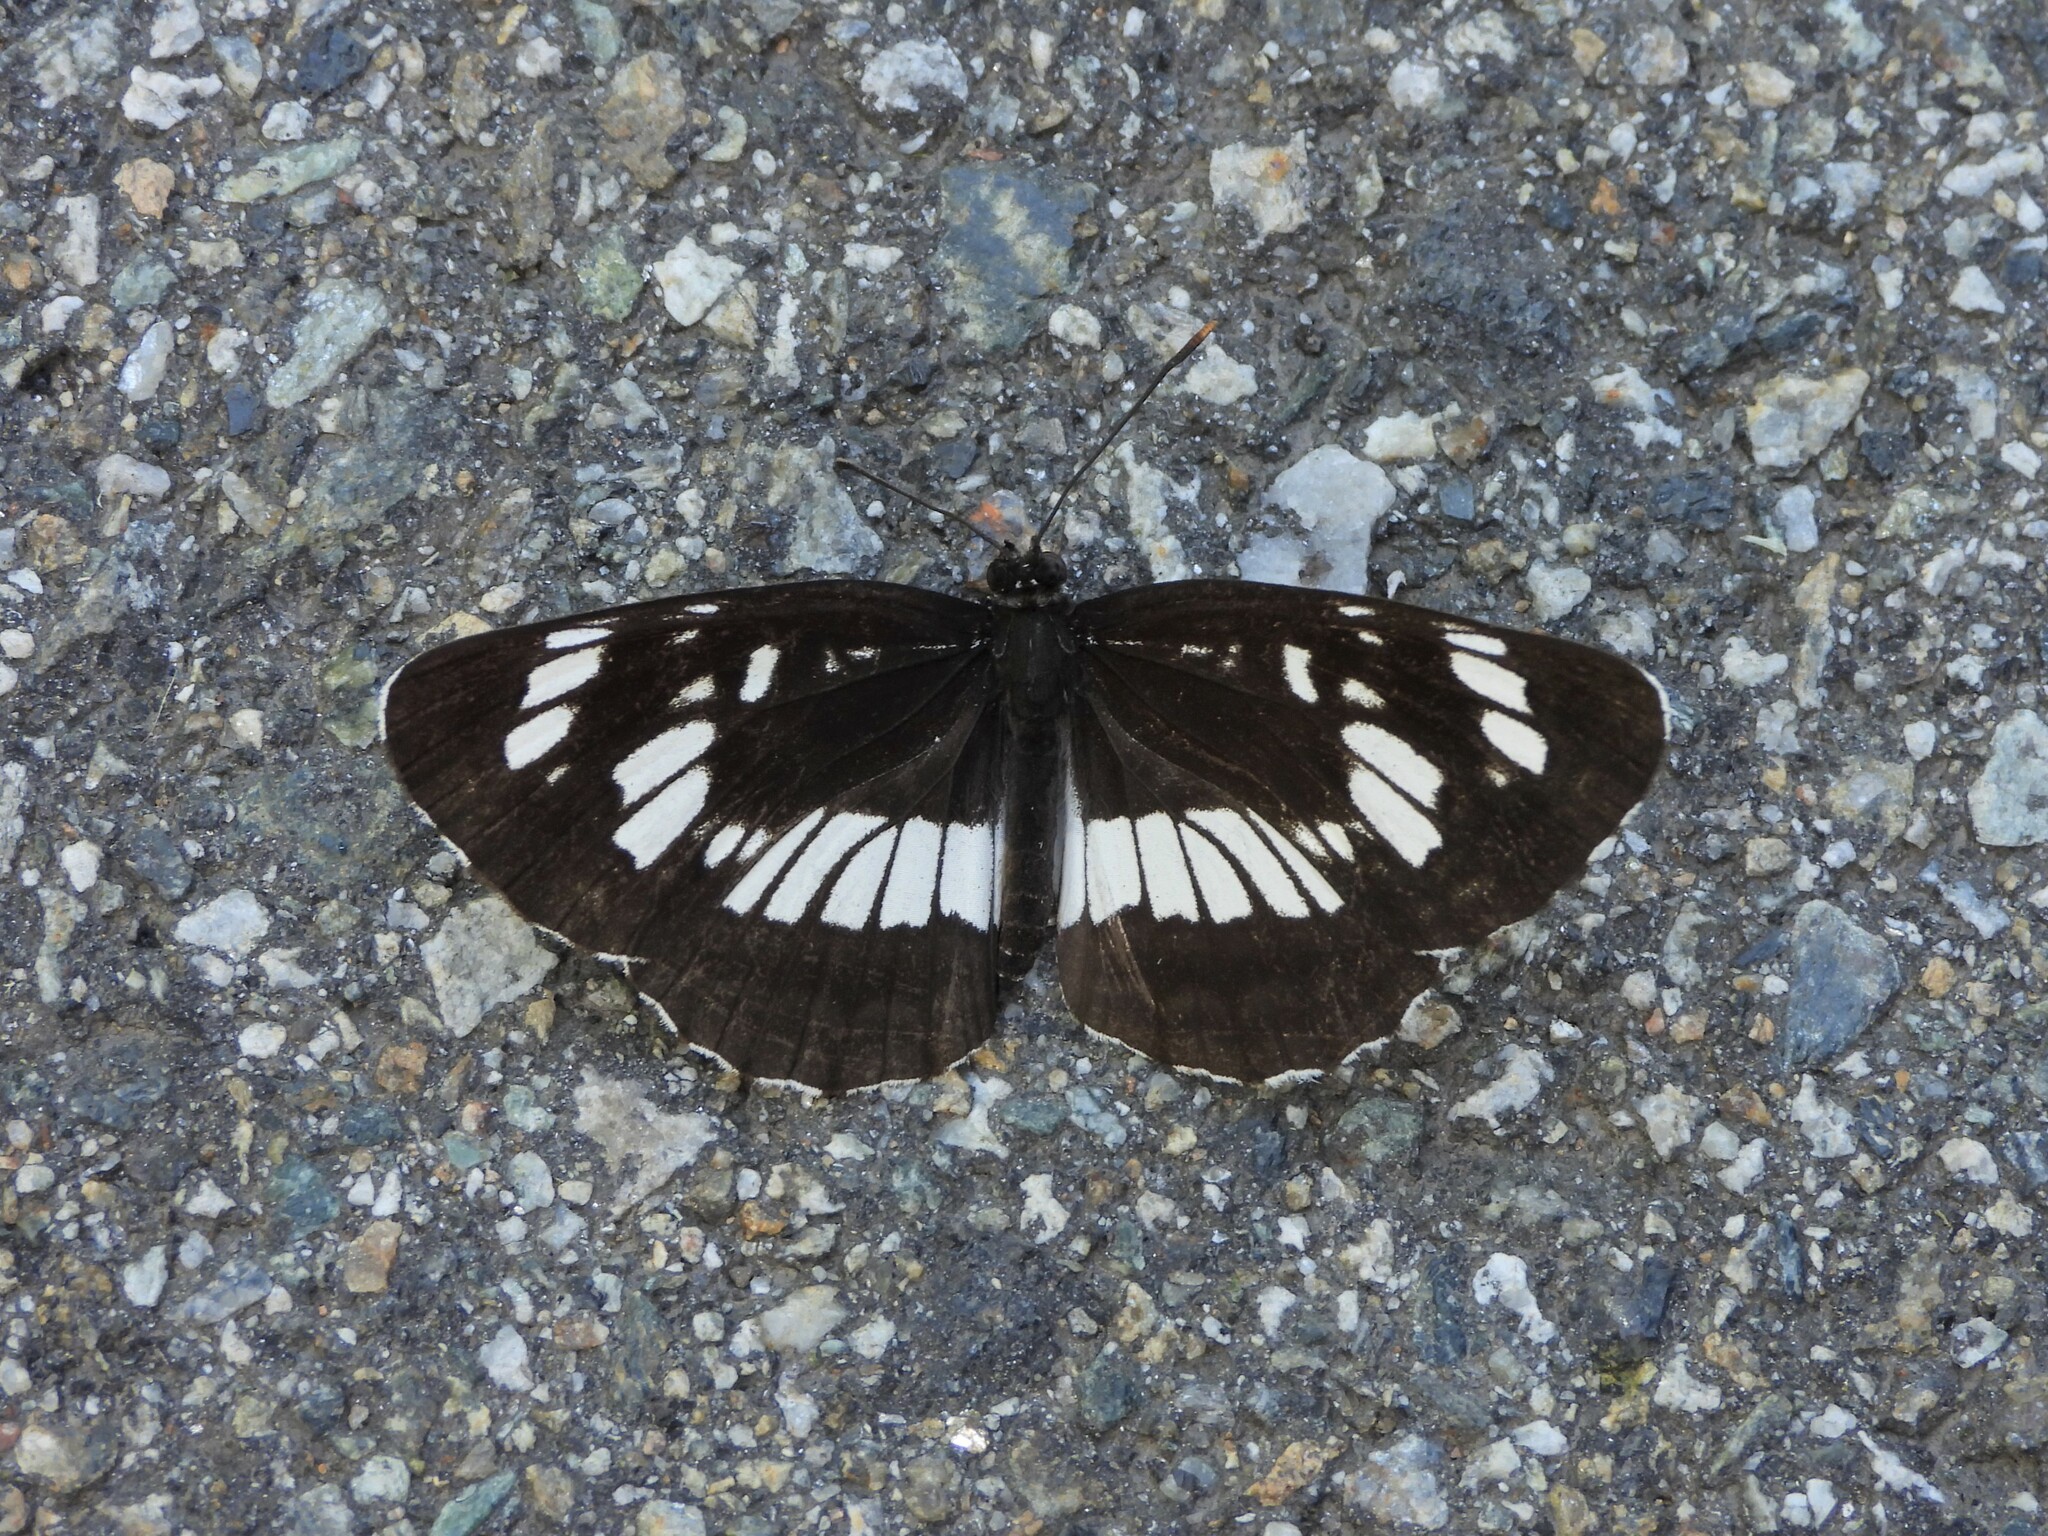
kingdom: Animalia
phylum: Arthropoda
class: Insecta
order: Lepidoptera
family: Nymphalidae
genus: Neptis
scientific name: Neptis rivularis
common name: Hungarian glider
